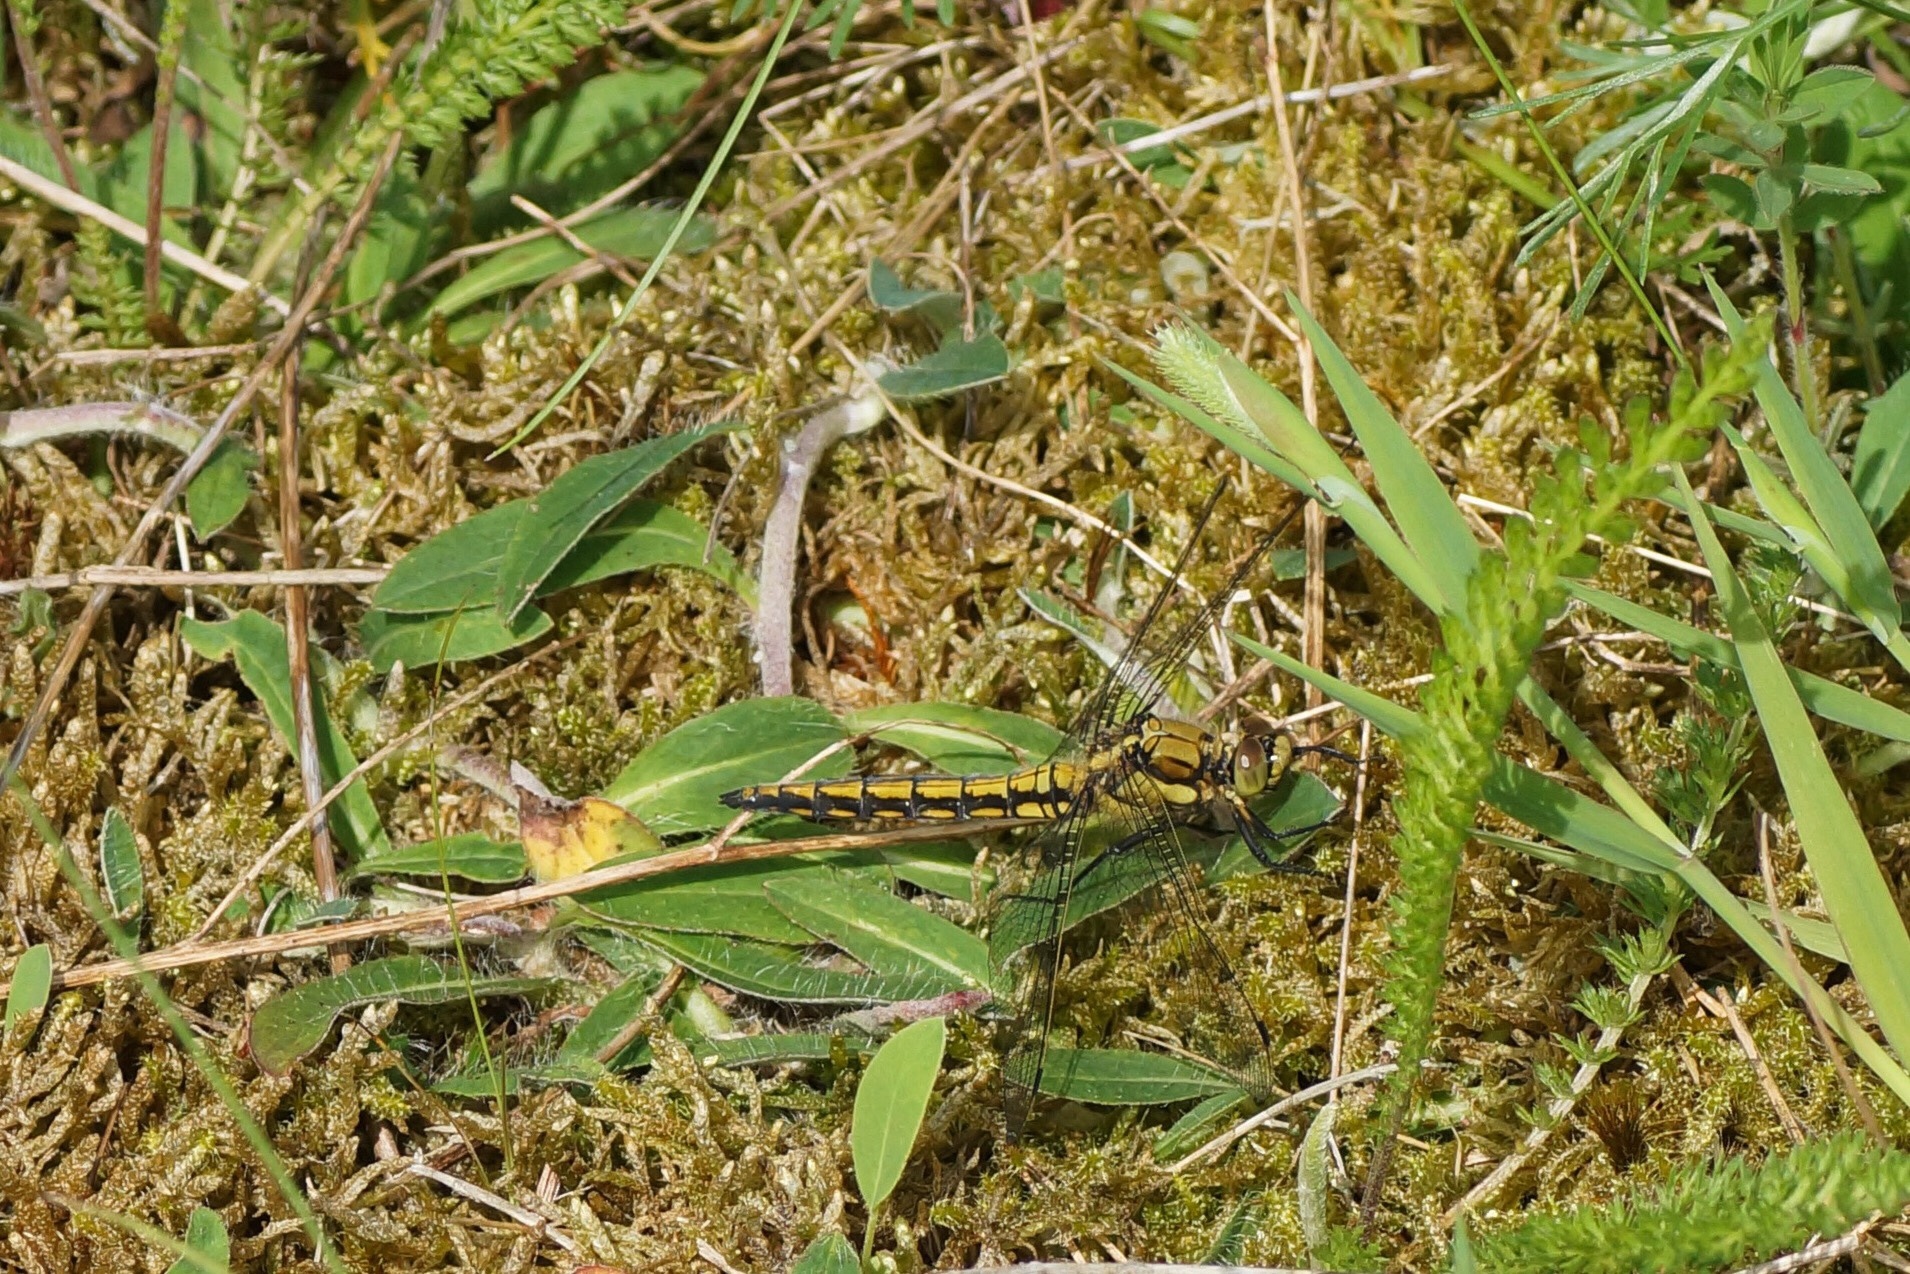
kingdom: Animalia
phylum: Arthropoda
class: Insecta
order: Odonata
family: Libellulidae
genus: Orthetrum
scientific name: Orthetrum cancellatum
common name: Black-tailed skimmer
